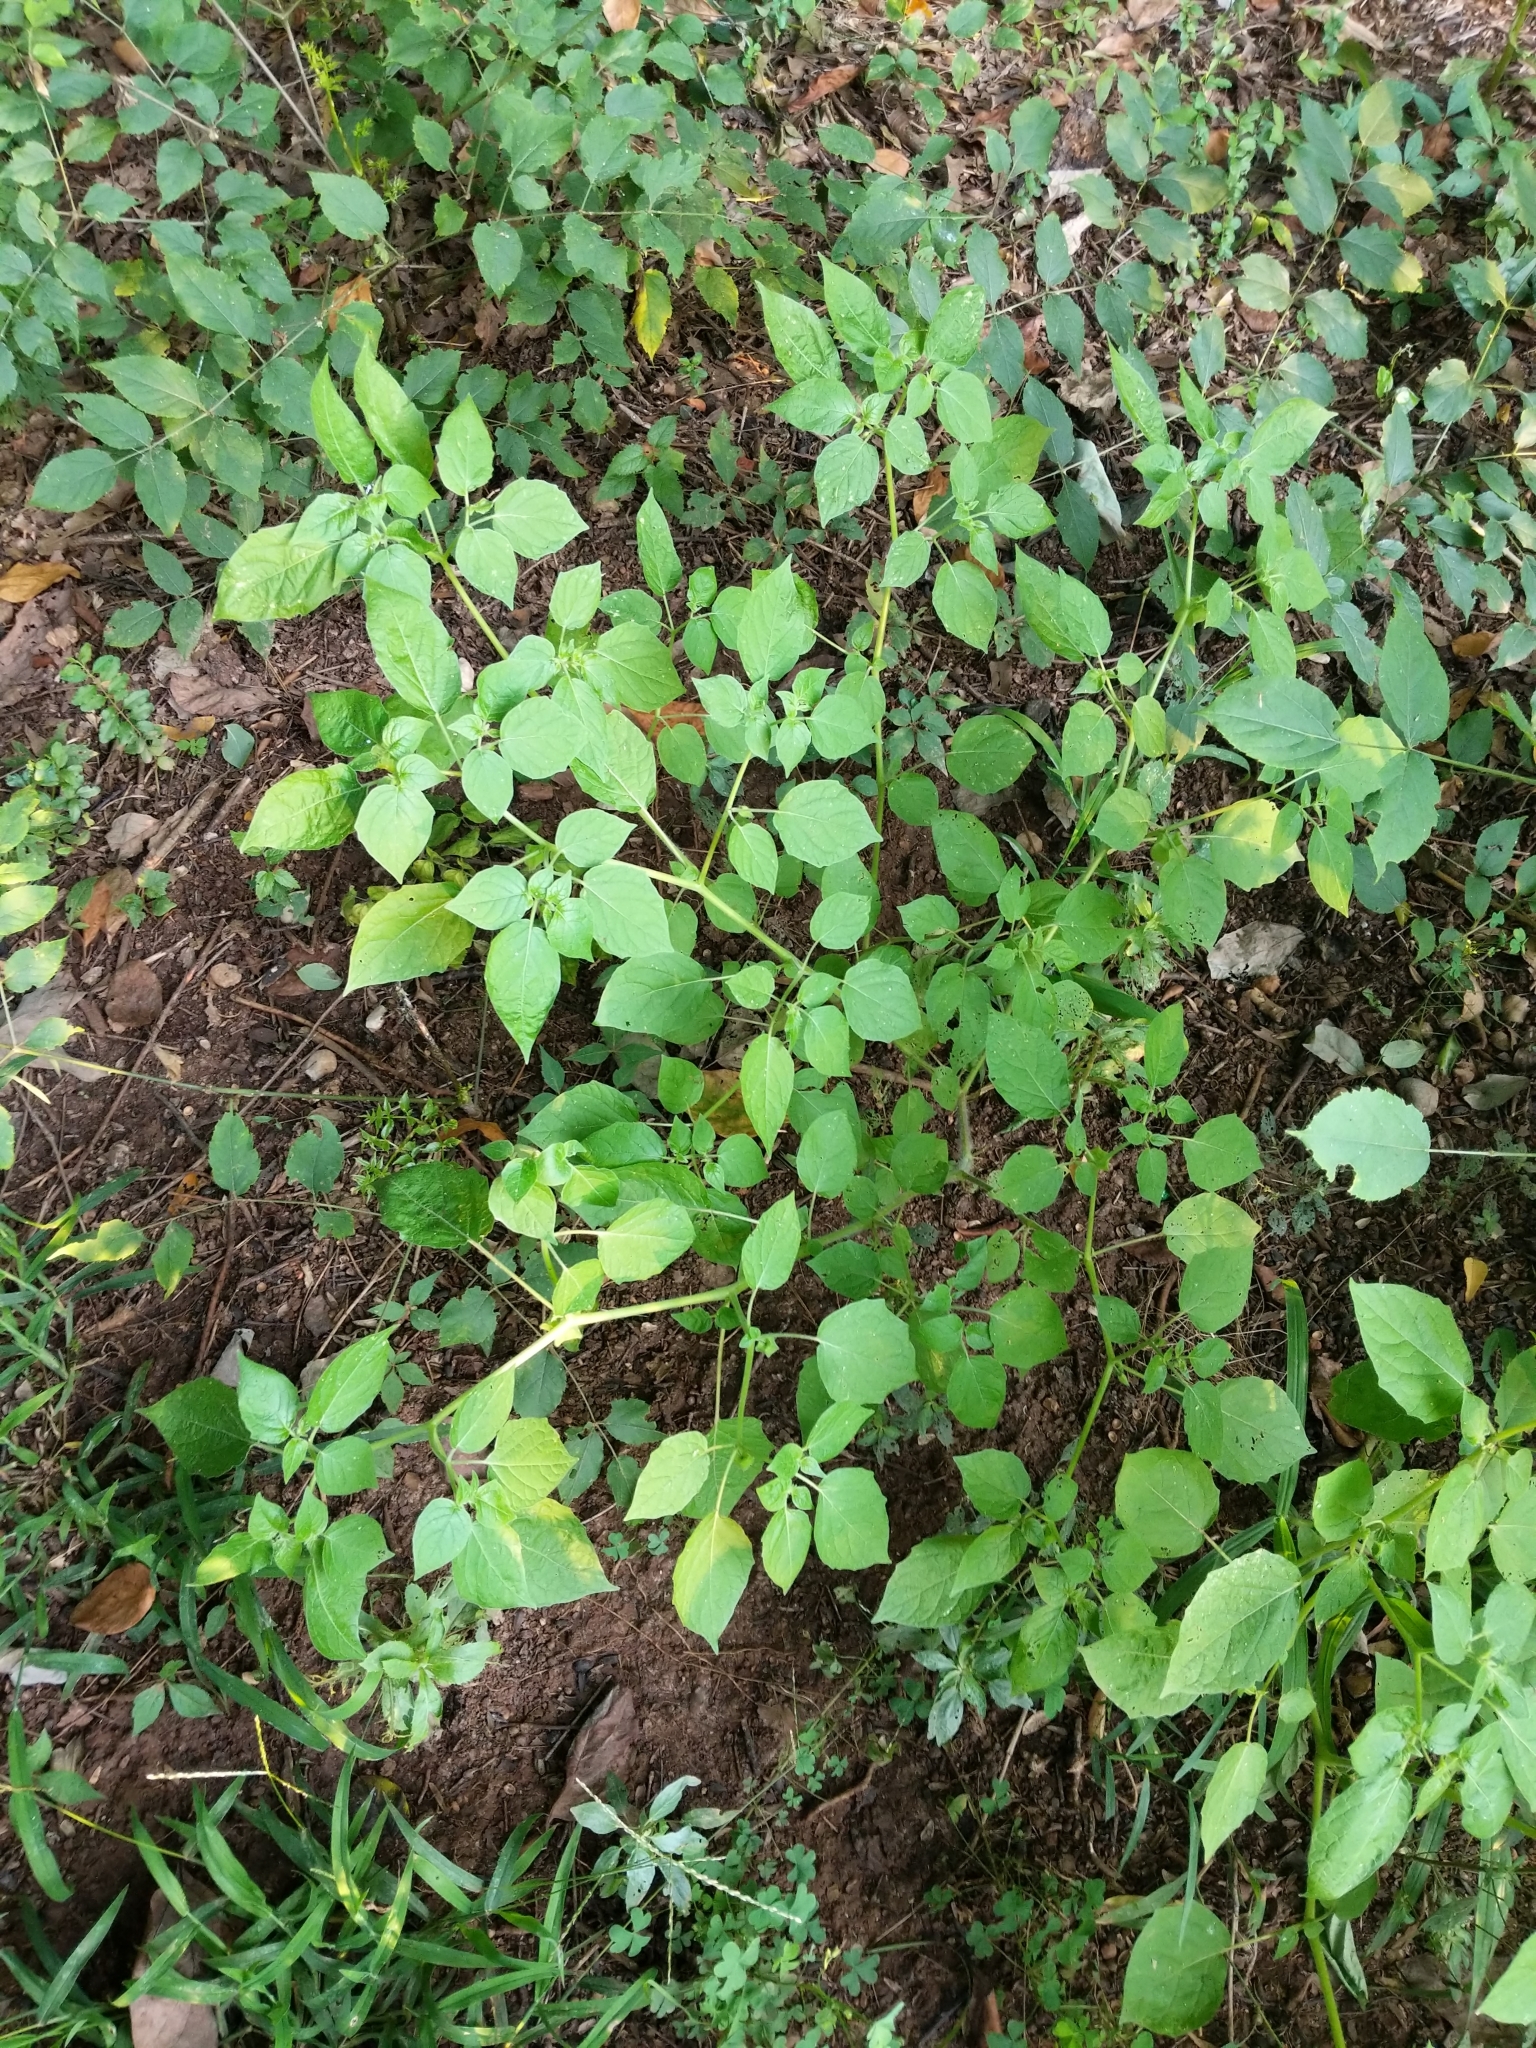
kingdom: Plantae
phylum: Tracheophyta
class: Magnoliopsida
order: Solanales
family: Solanaceae
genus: Physalis
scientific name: Physalis pubescens
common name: Downy ground-cherry
